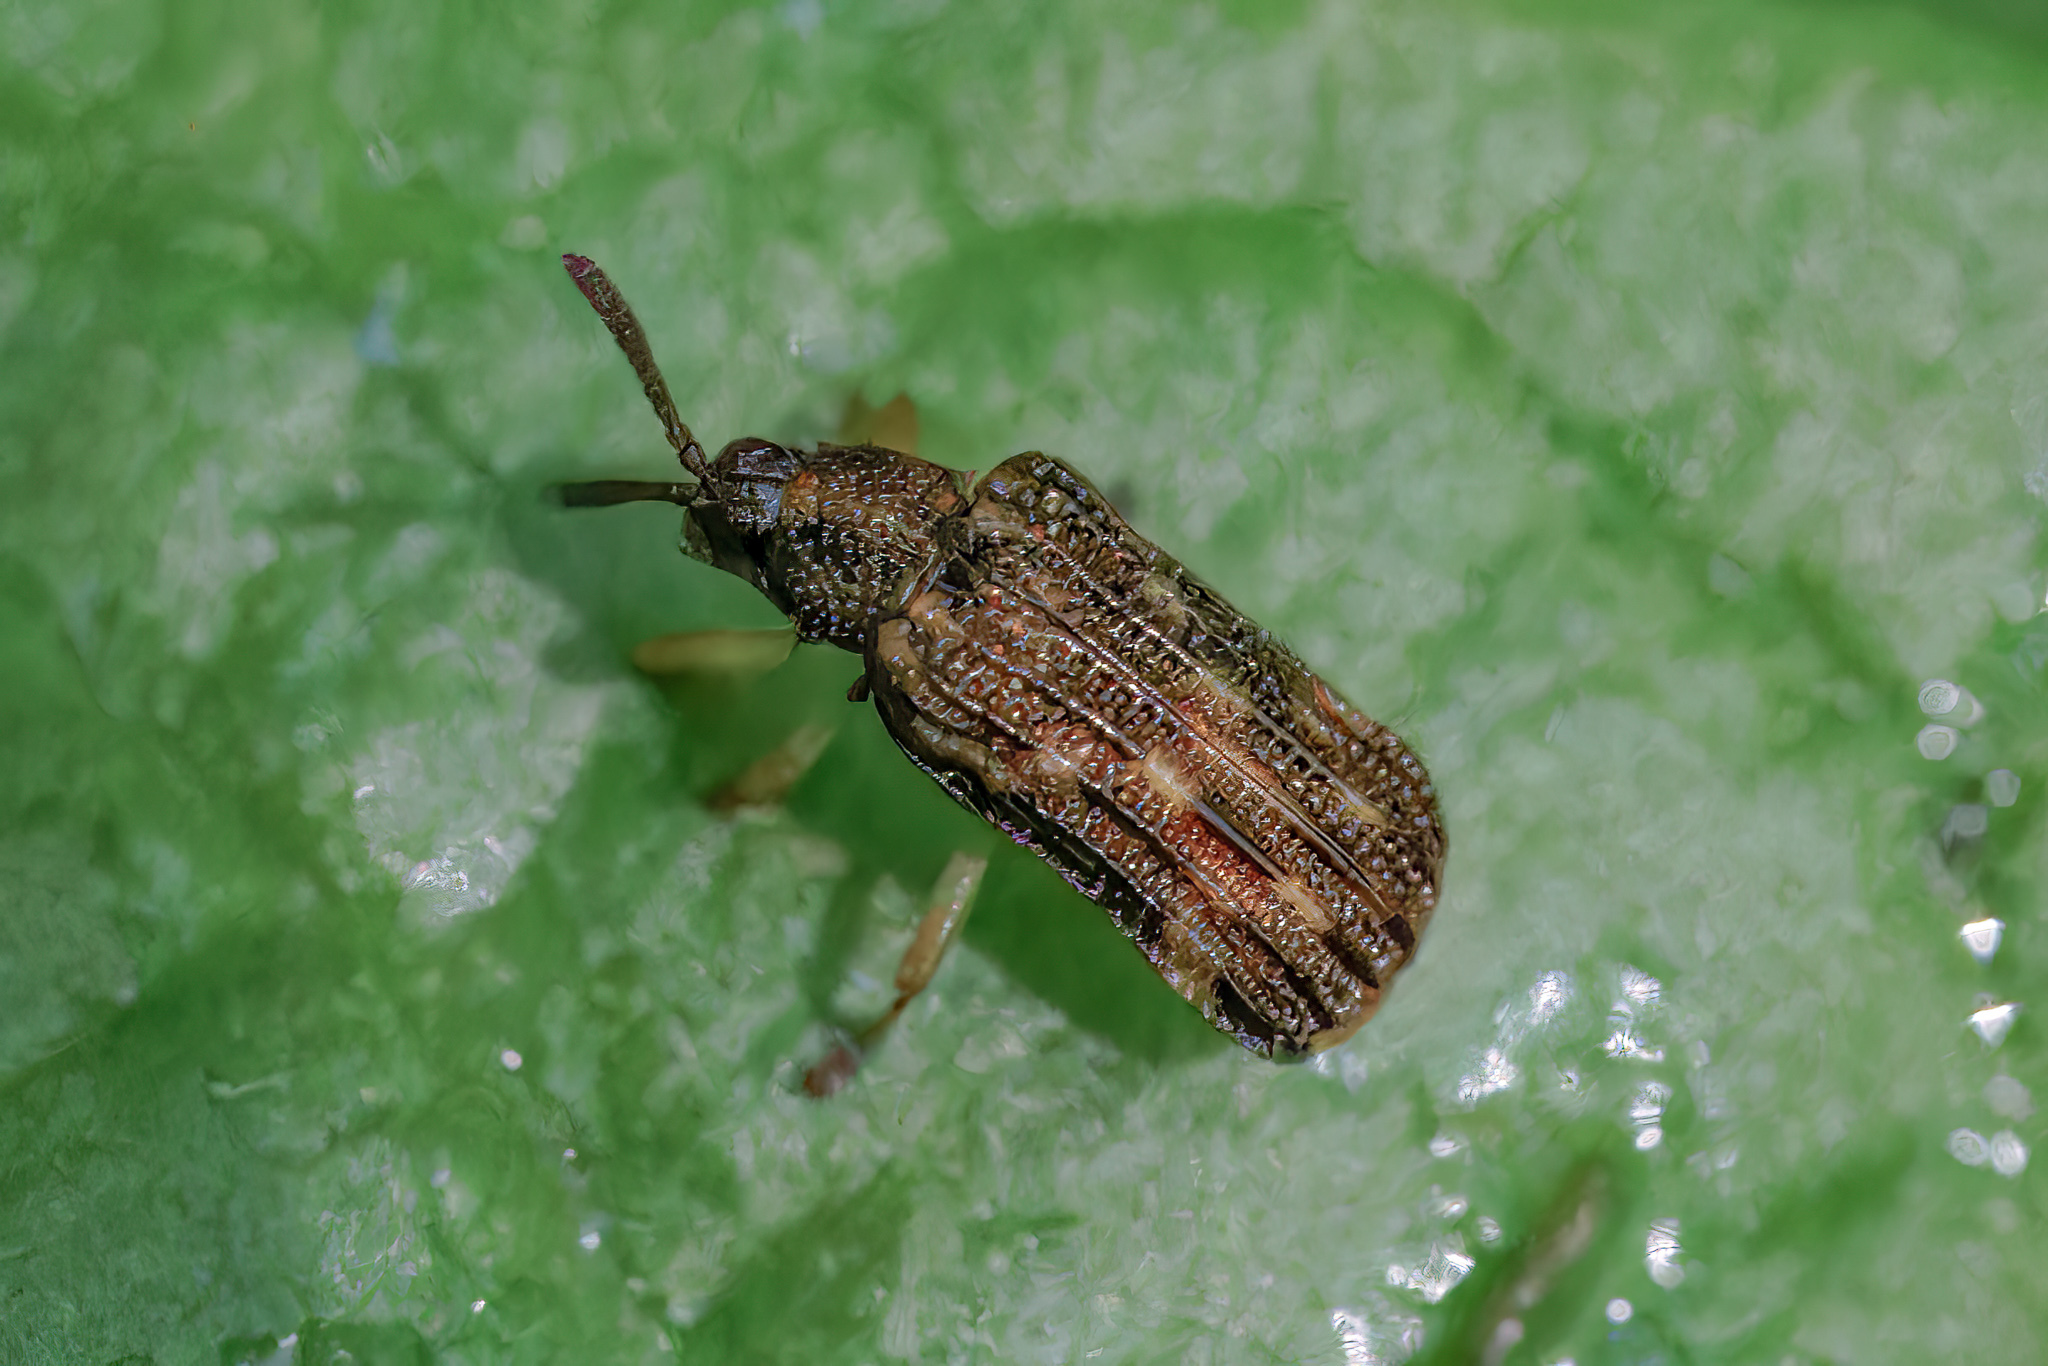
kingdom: Animalia
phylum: Arthropoda
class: Insecta
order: Coleoptera
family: Chrysomelidae
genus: Sumitrosis
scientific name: Sumitrosis inaequalis
